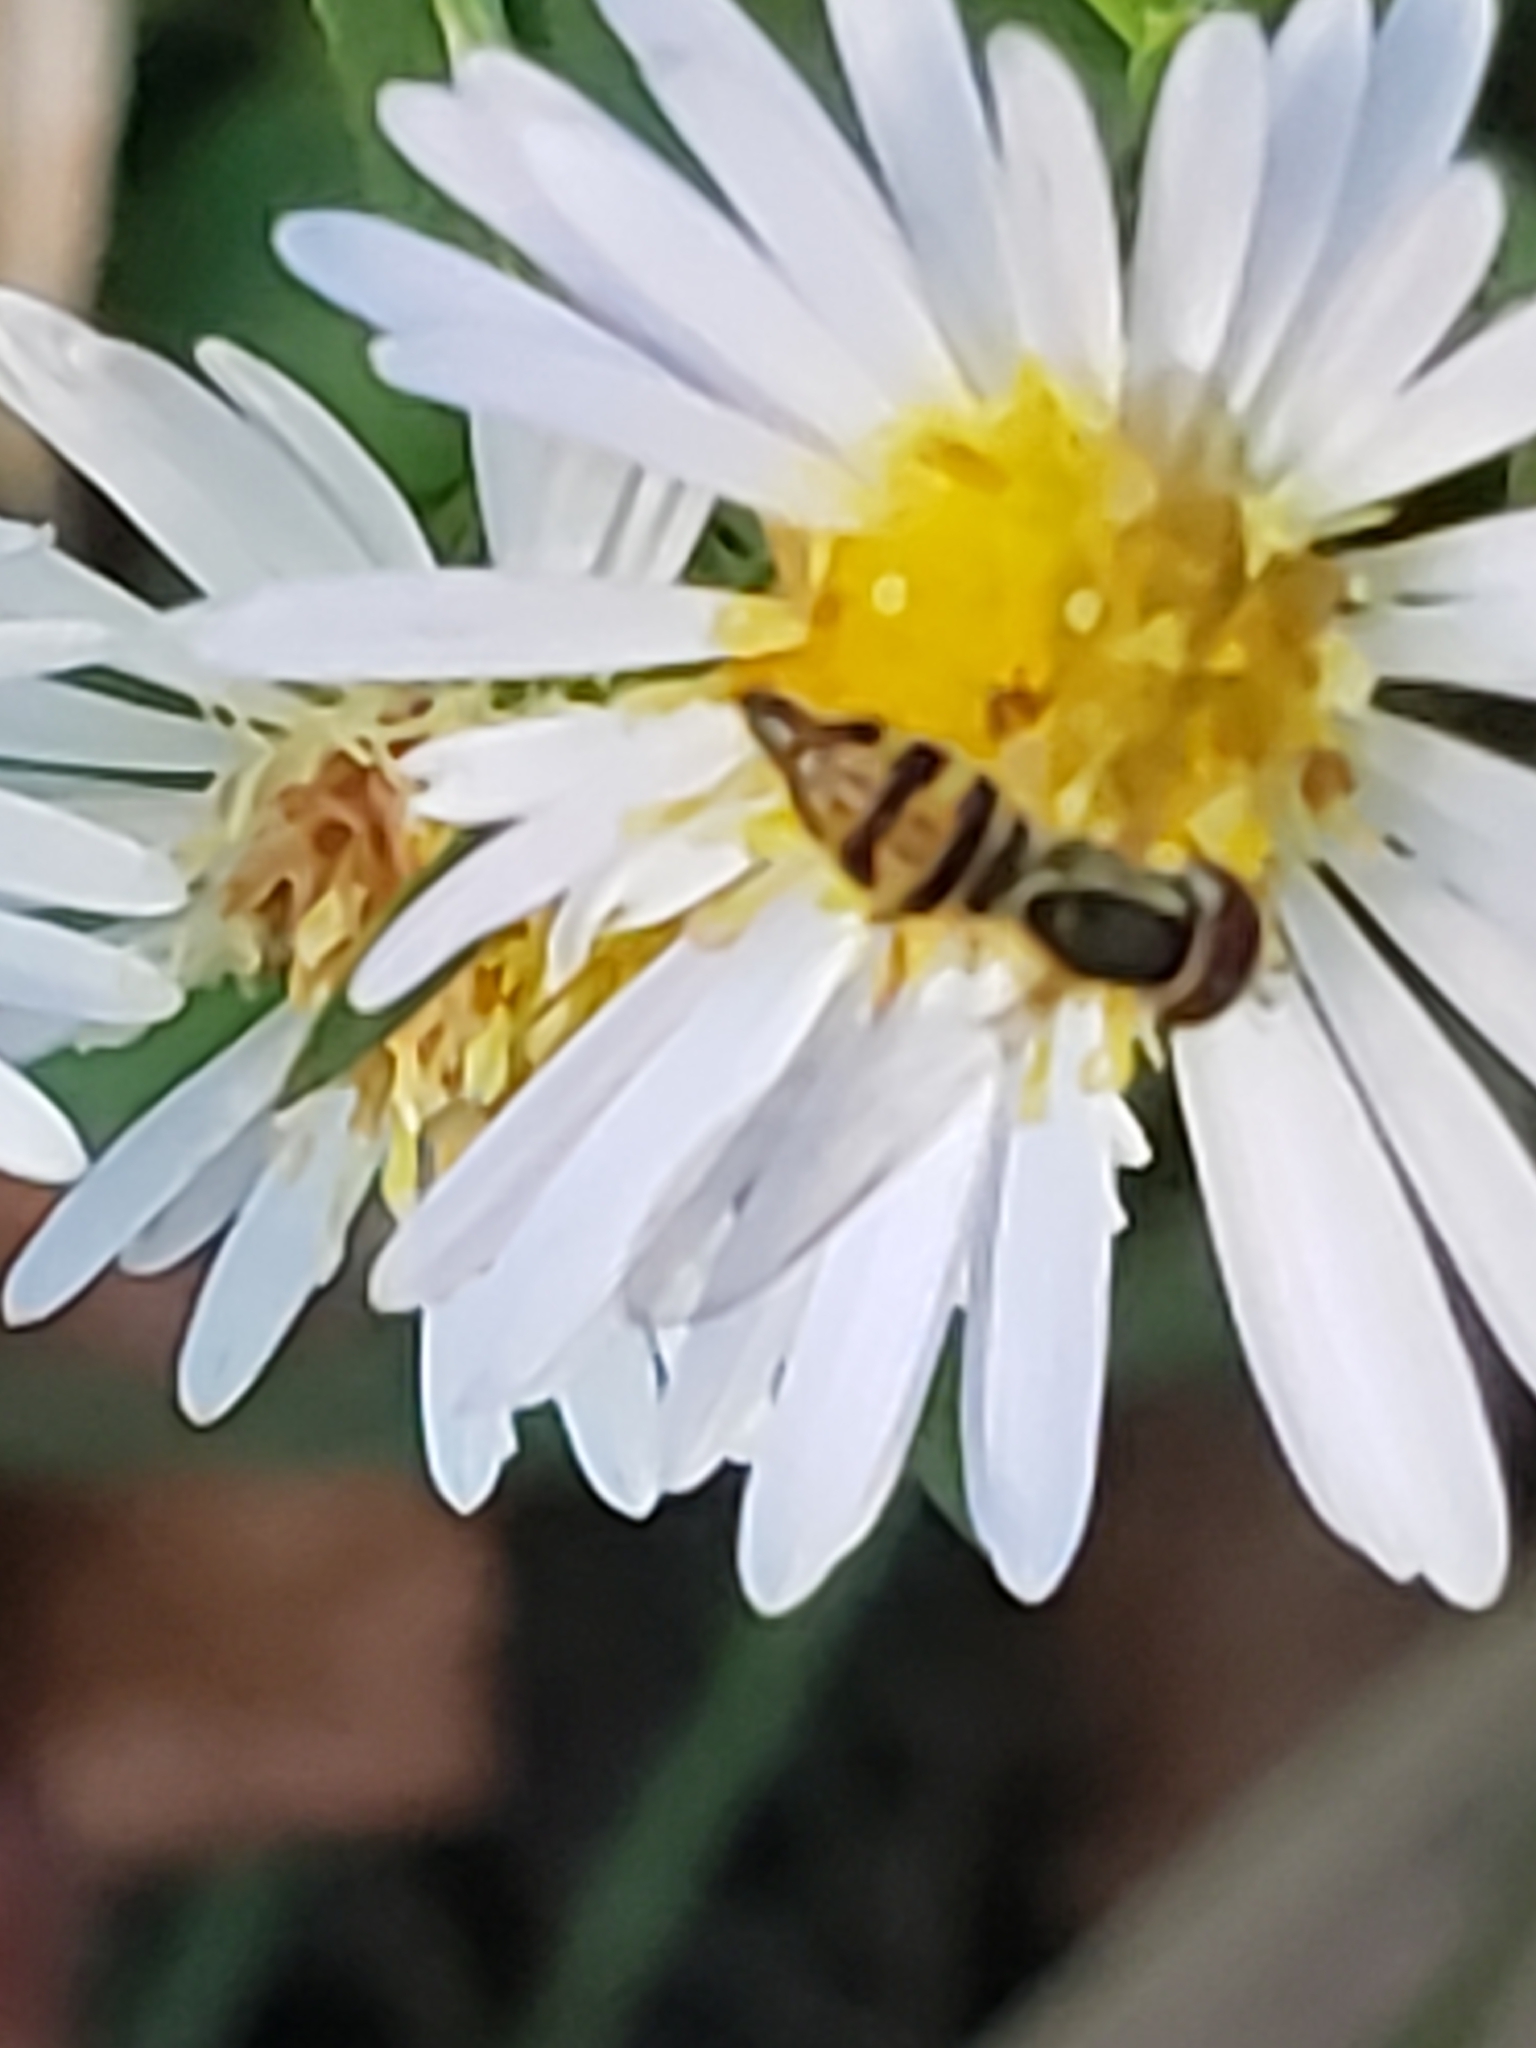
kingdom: Animalia
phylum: Arthropoda
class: Insecta
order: Diptera
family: Syrphidae
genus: Toxomerus
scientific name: Toxomerus geminatus
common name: Eastern calligrapher
